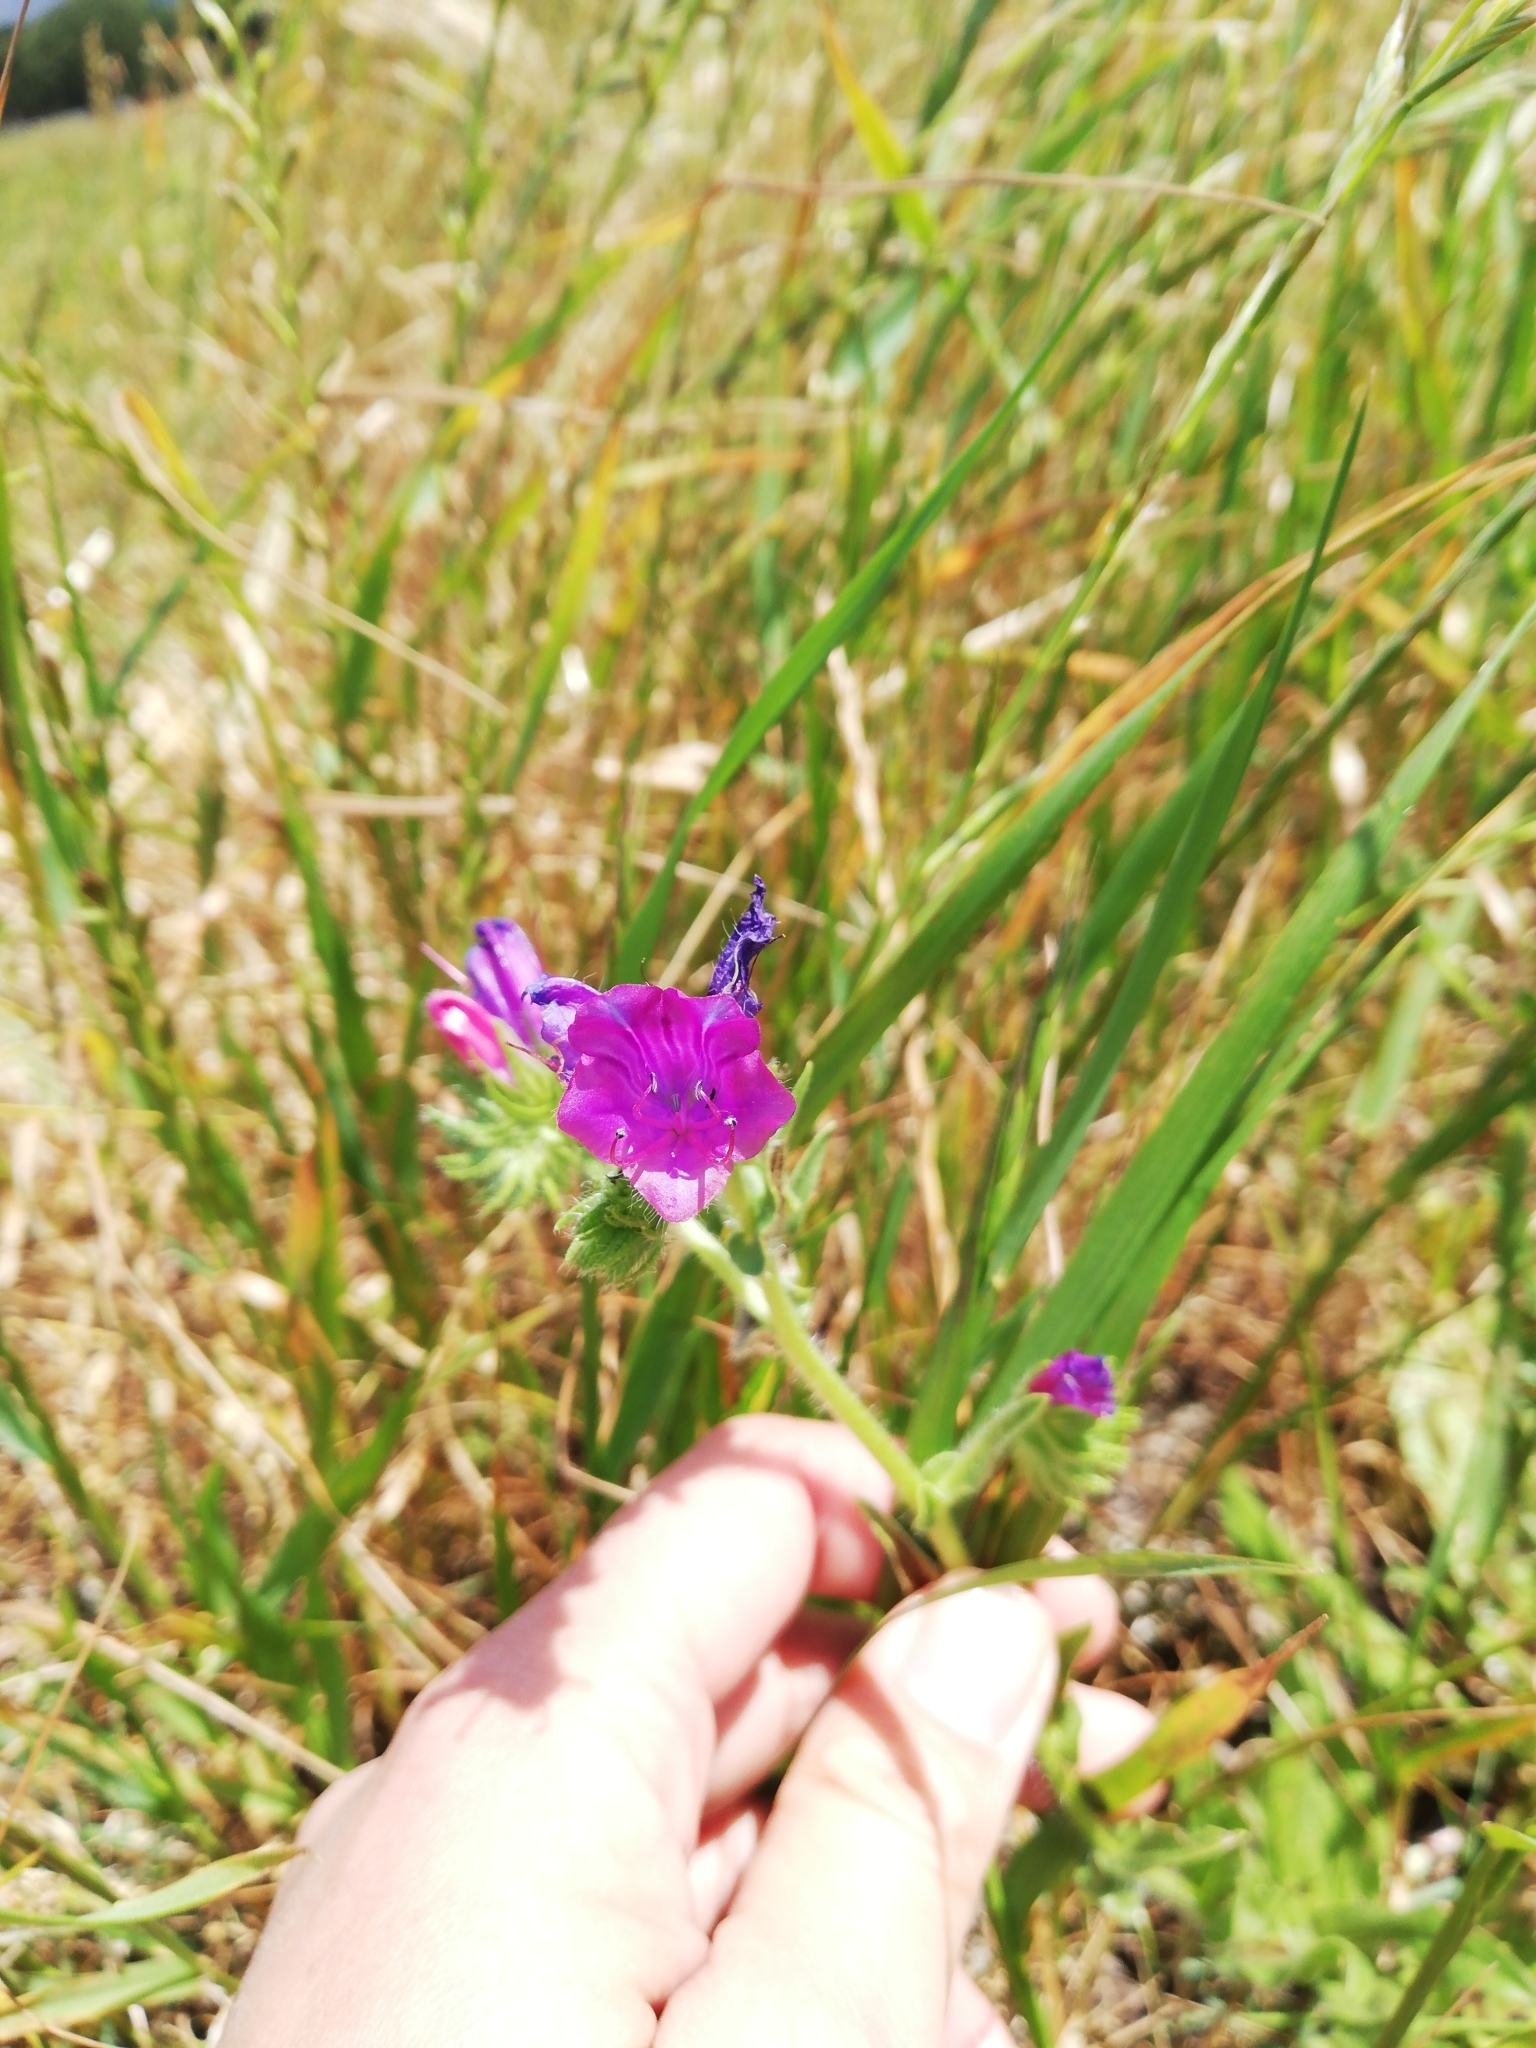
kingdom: Plantae
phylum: Tracheophyta
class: Magnoliopsida
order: Boraginales
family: Boraginaceae
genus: Echium
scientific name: Echium plantagineum
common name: Purple viper's-bugloss
